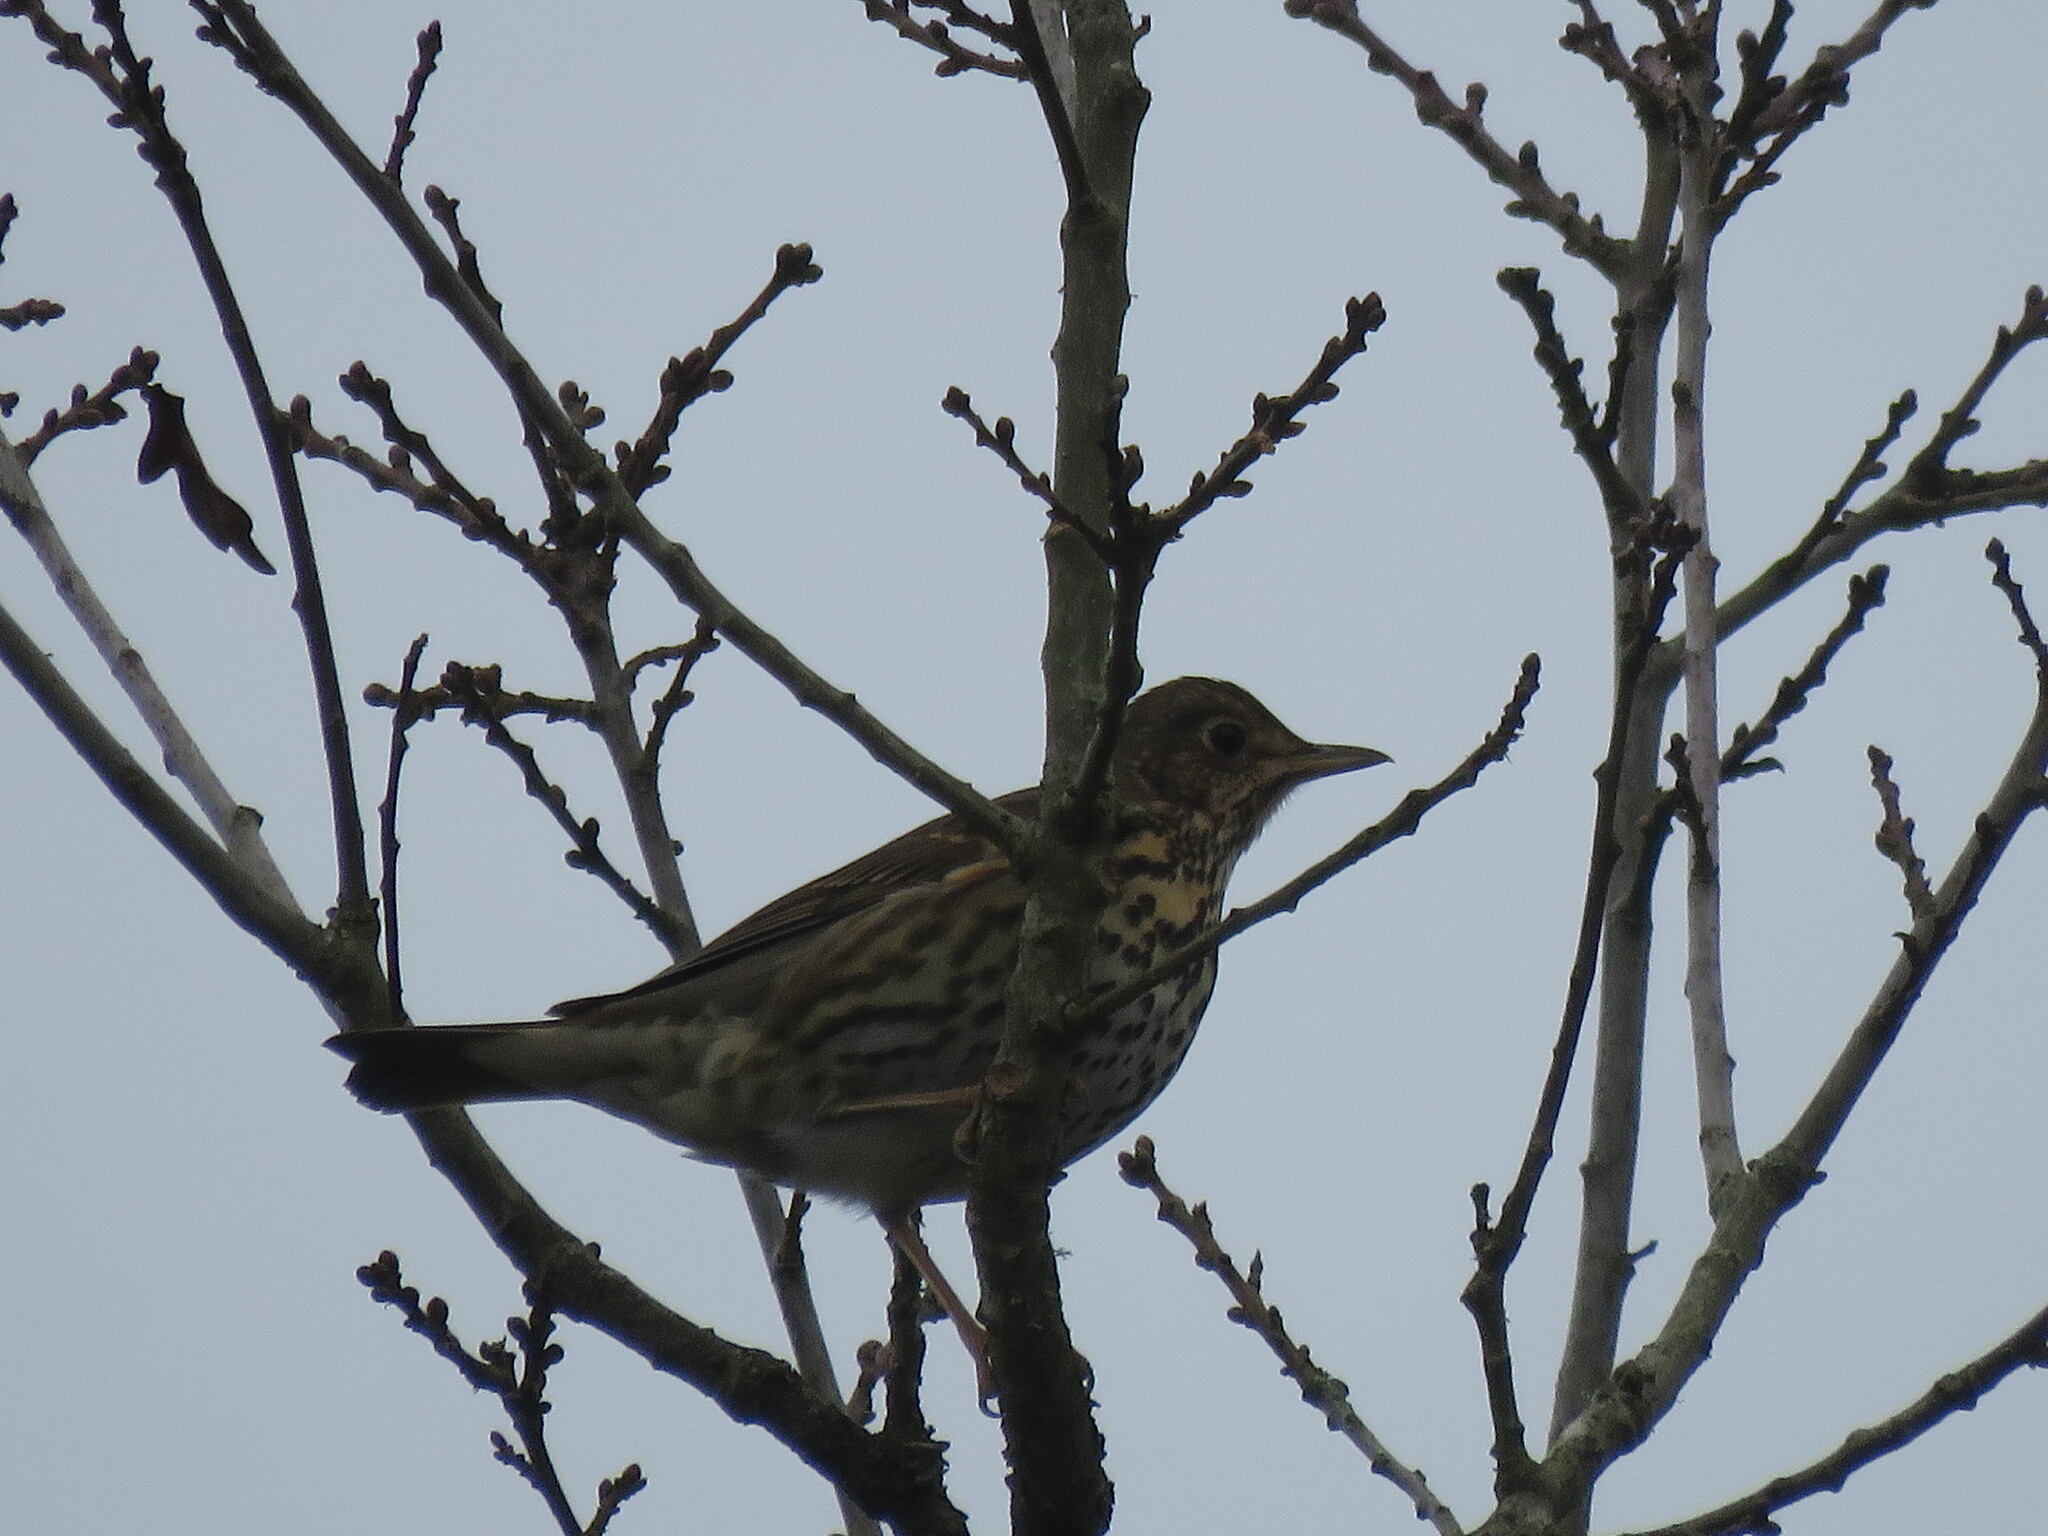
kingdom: Animalia
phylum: Chordata
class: Aves
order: Passeriformes
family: Turdidae
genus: Turdus
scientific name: Turdus philomelos
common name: Song thrush
